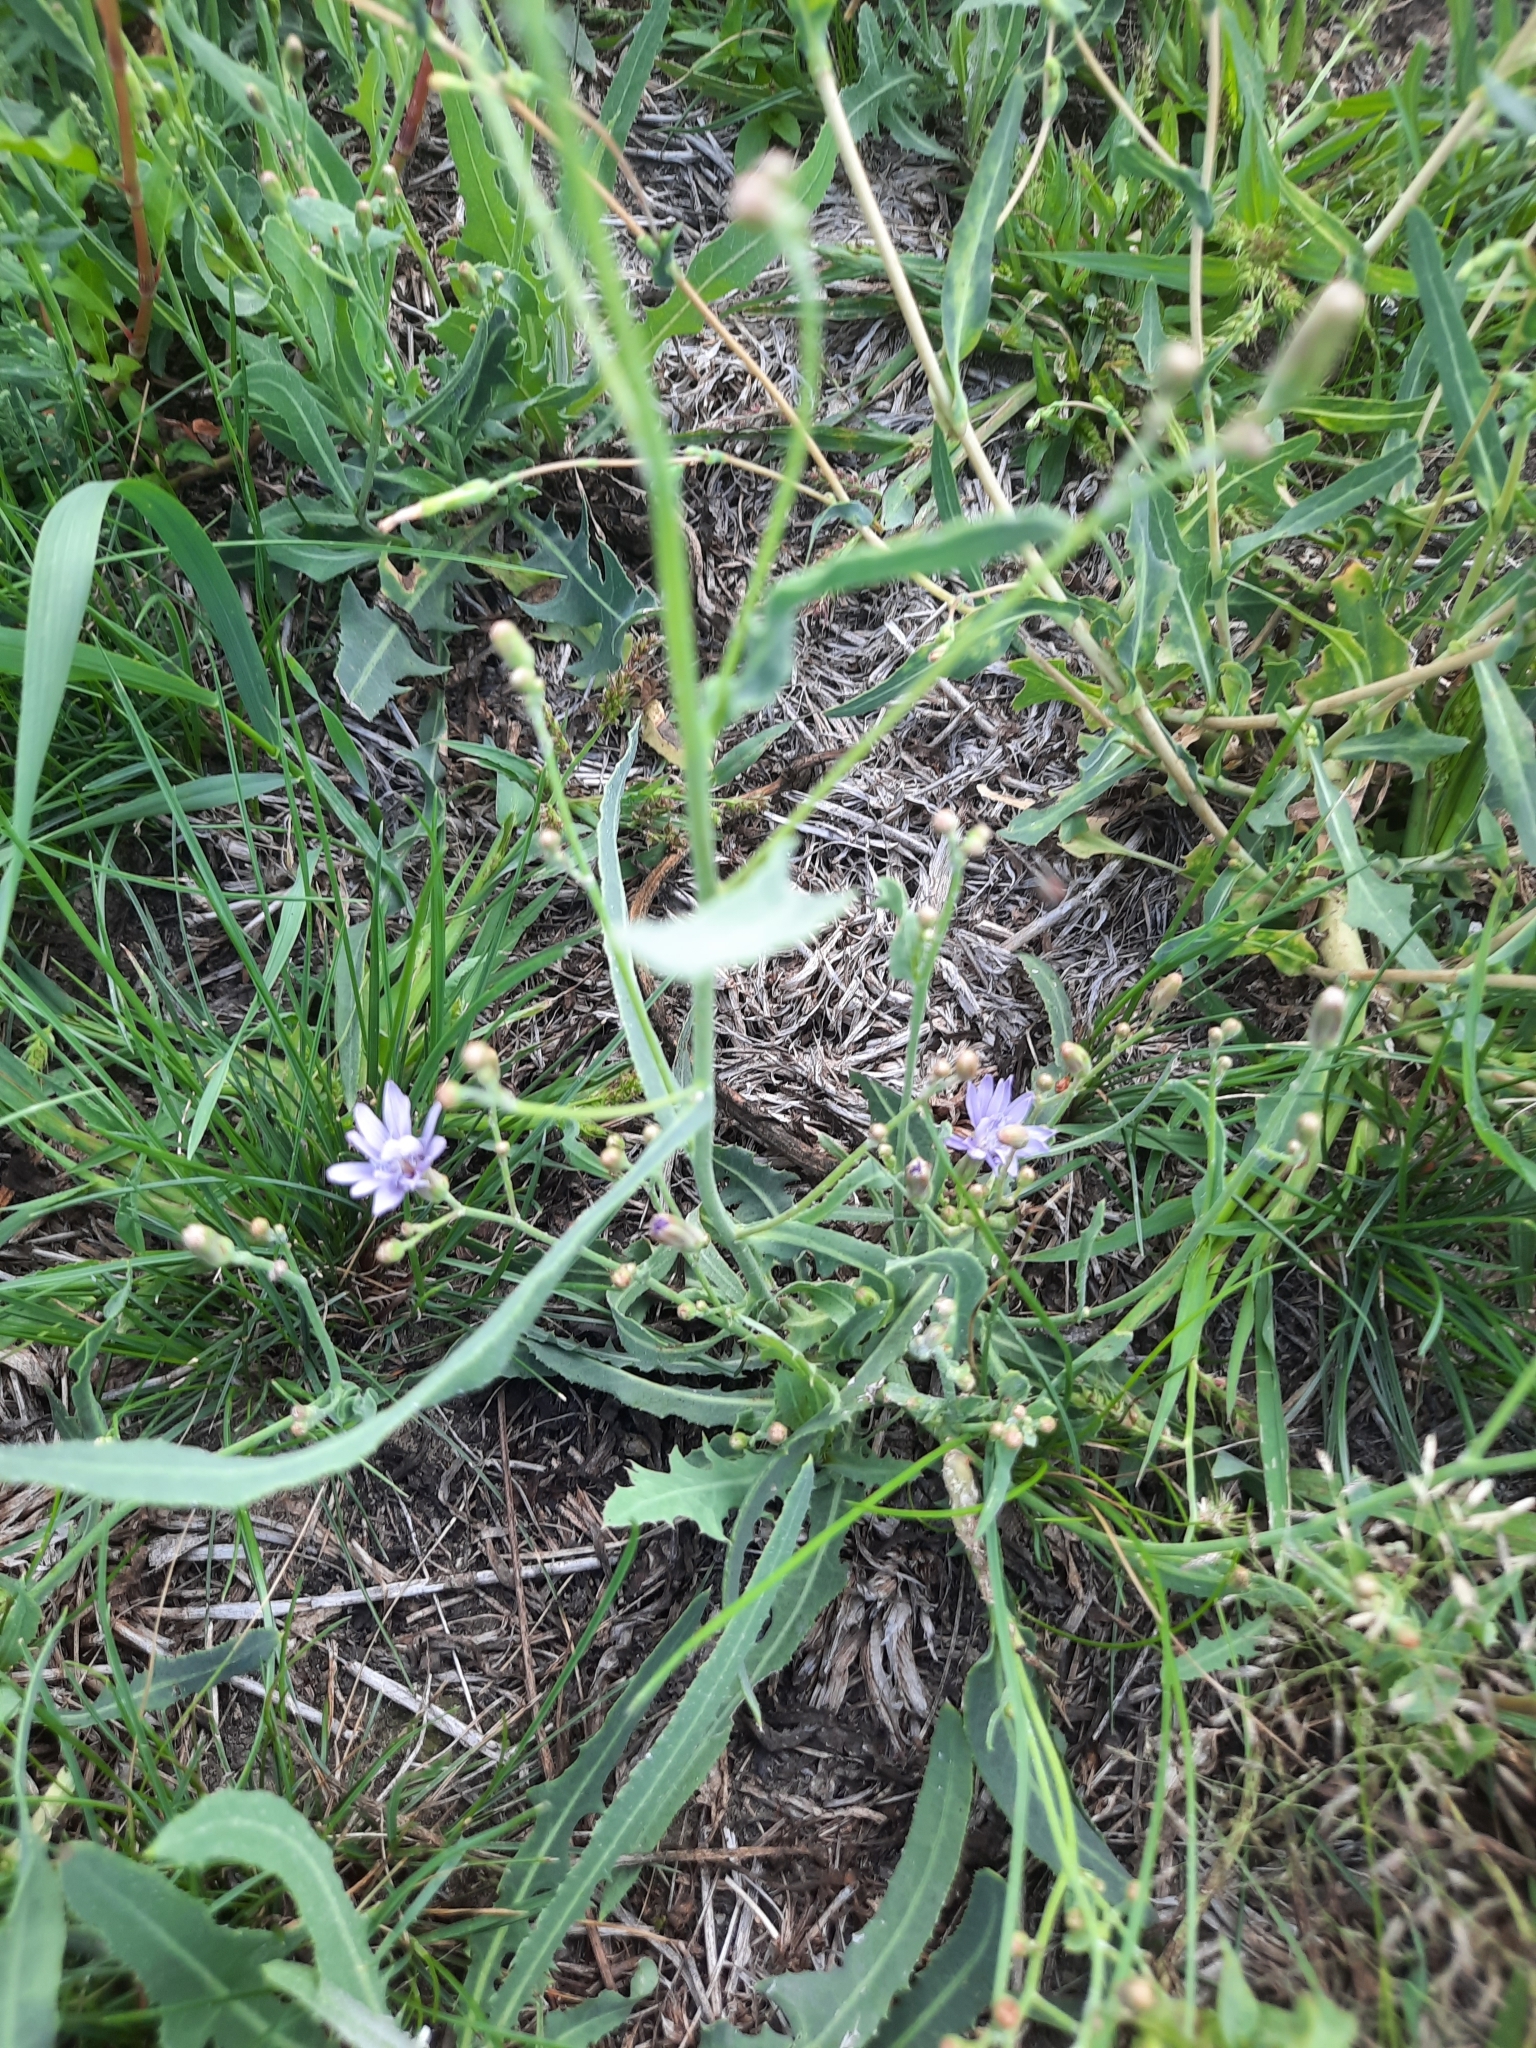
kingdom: Plantae
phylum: Tracheophyta
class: Magnoliopsida
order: Asterales
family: Asteraceae
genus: Lactuca
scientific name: Lactuca tatarica
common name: Blue lettuce
